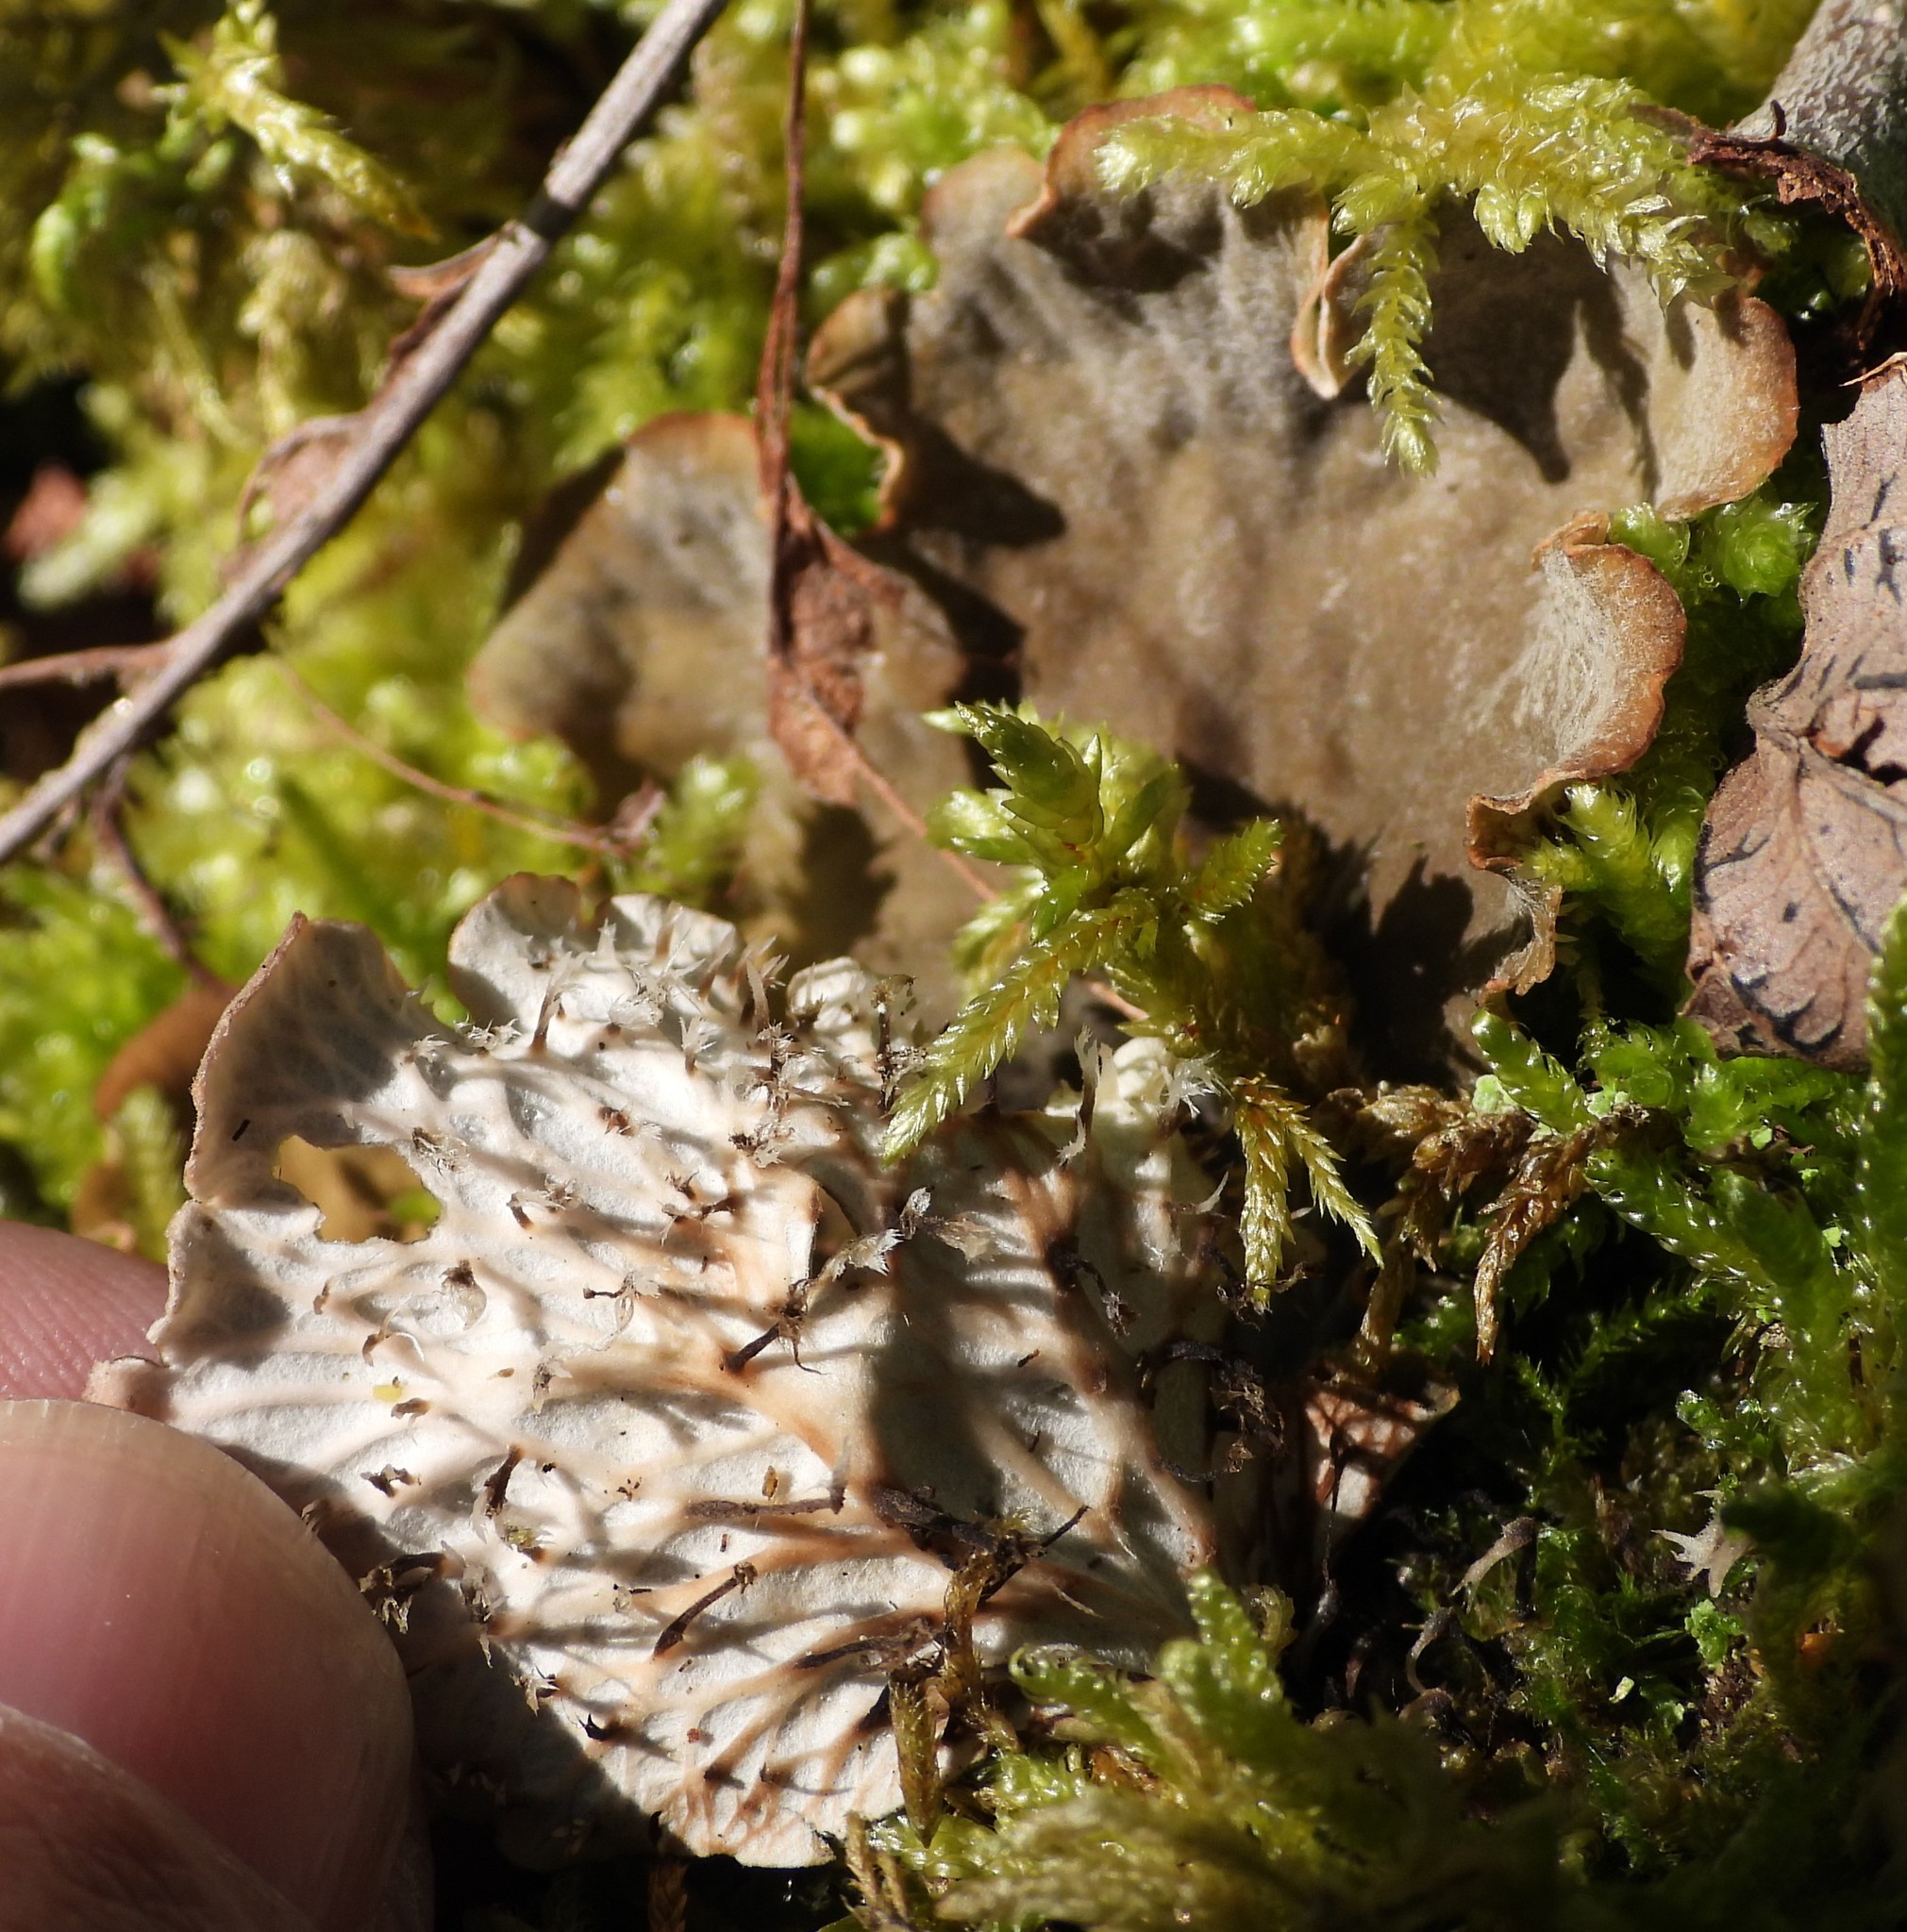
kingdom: Fungi
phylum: Ascomycota
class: Lecanoromycetes
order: Peltigerales
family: Peltigeraceae
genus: Peltigera
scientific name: Peltigera praetextata
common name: Scaly dog-lichen
